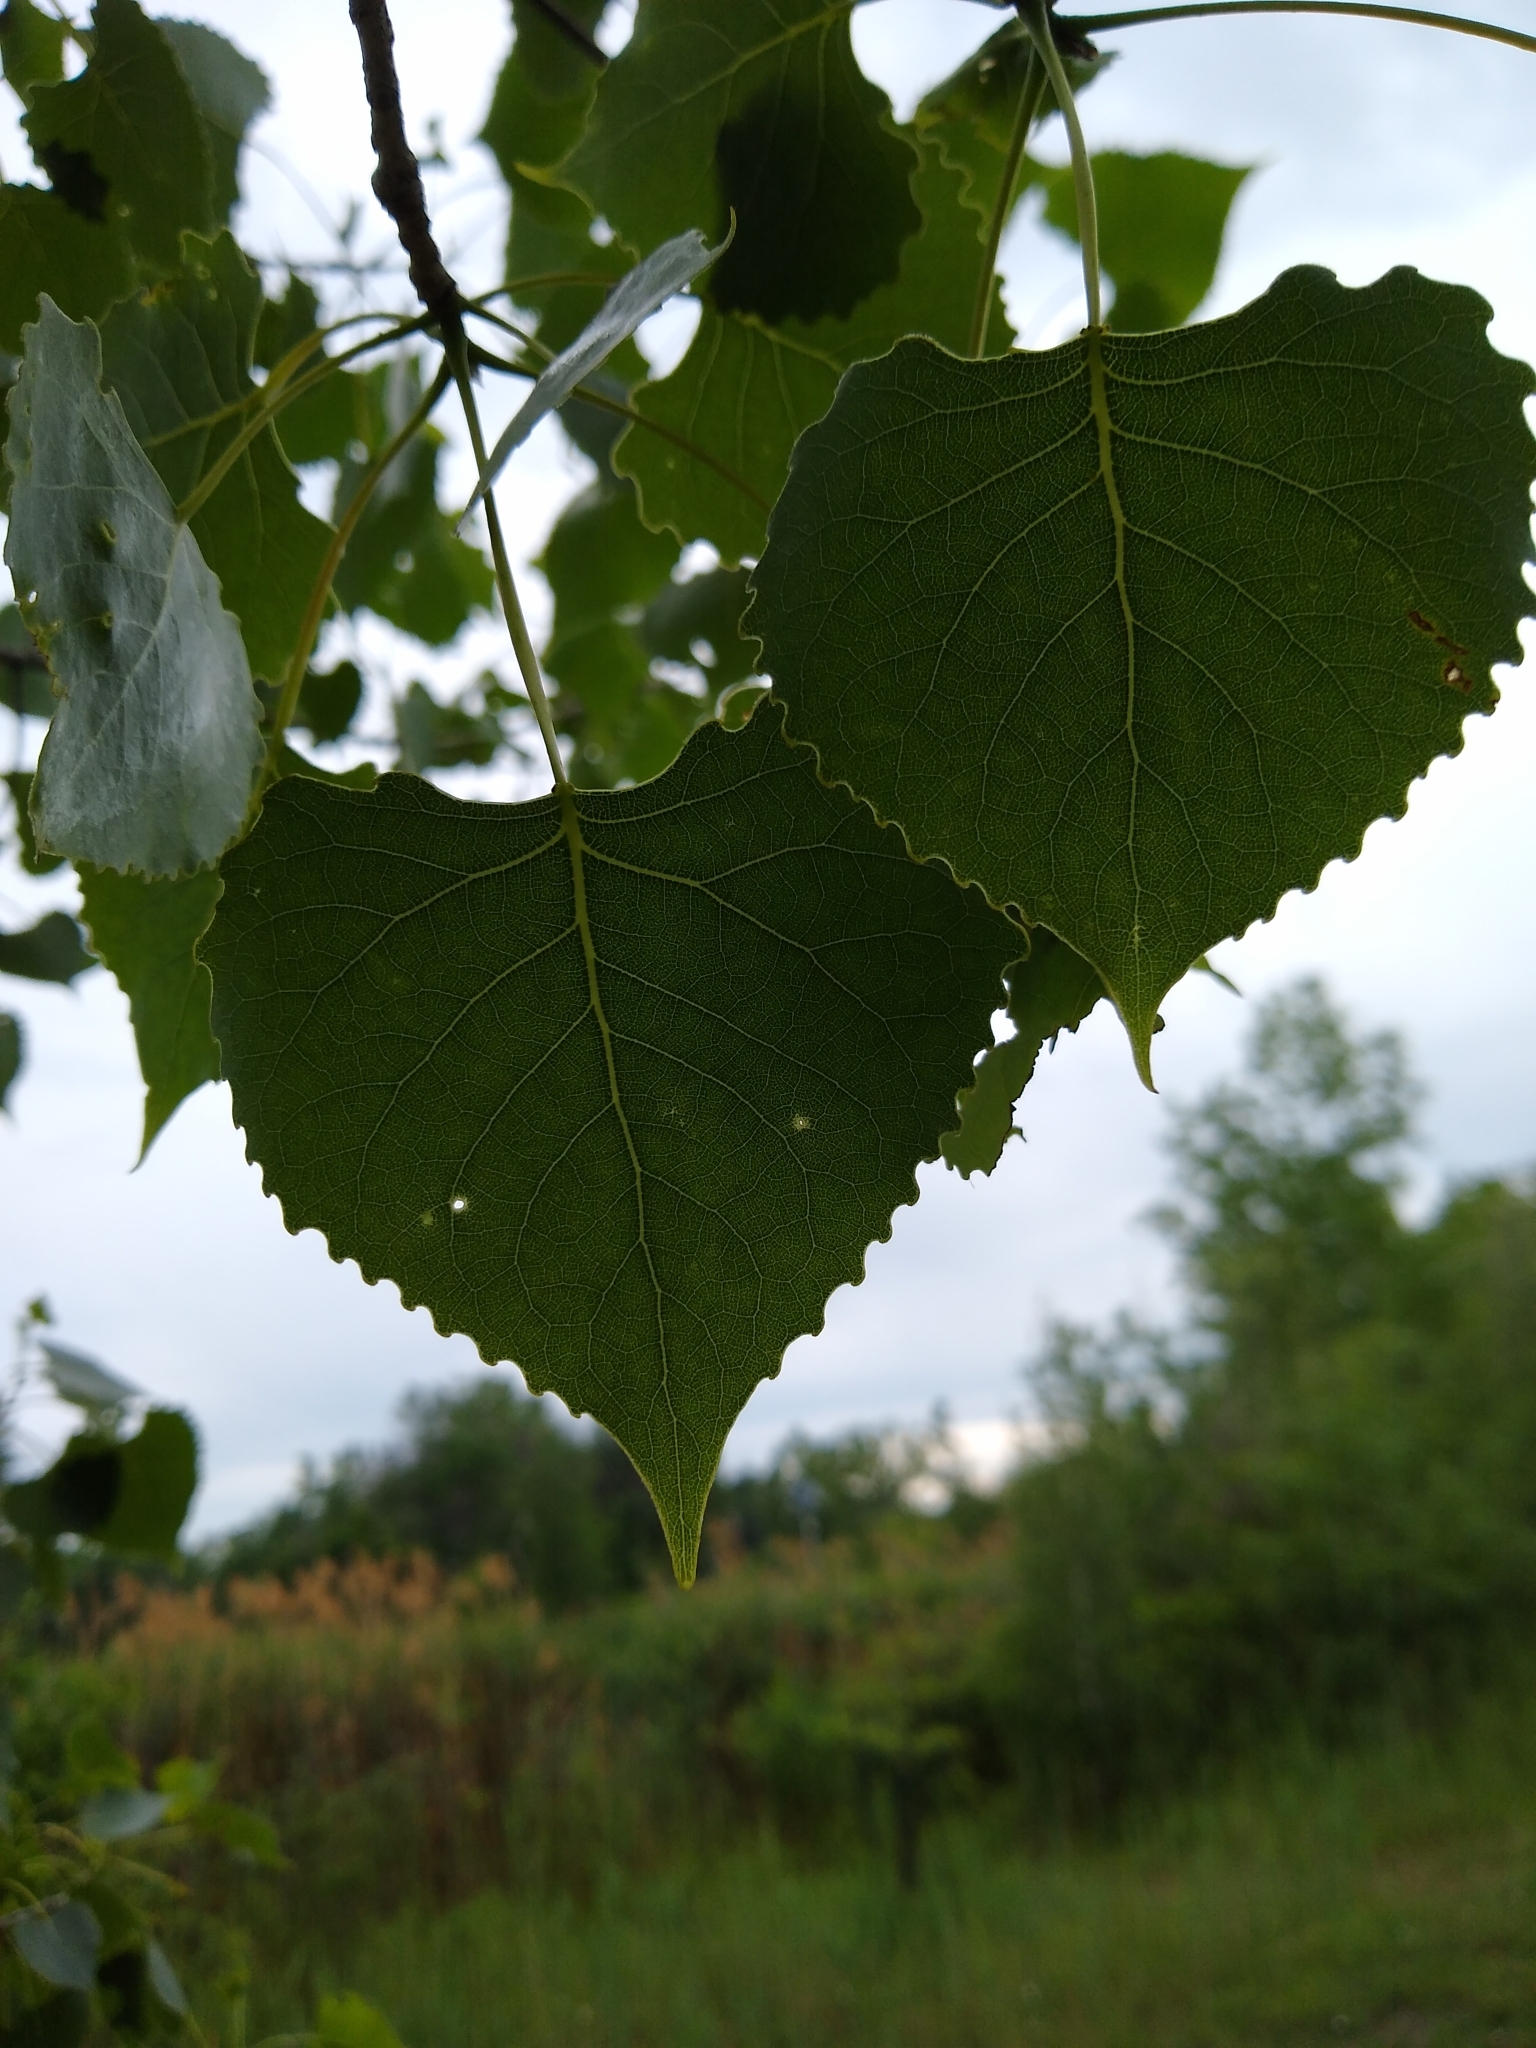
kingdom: Plantae
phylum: Tracheophyta
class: Magnoliopsida
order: Malpighiales
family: Salicaceae
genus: Populus
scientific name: Populus deltoides
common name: Eastern cottonwood
